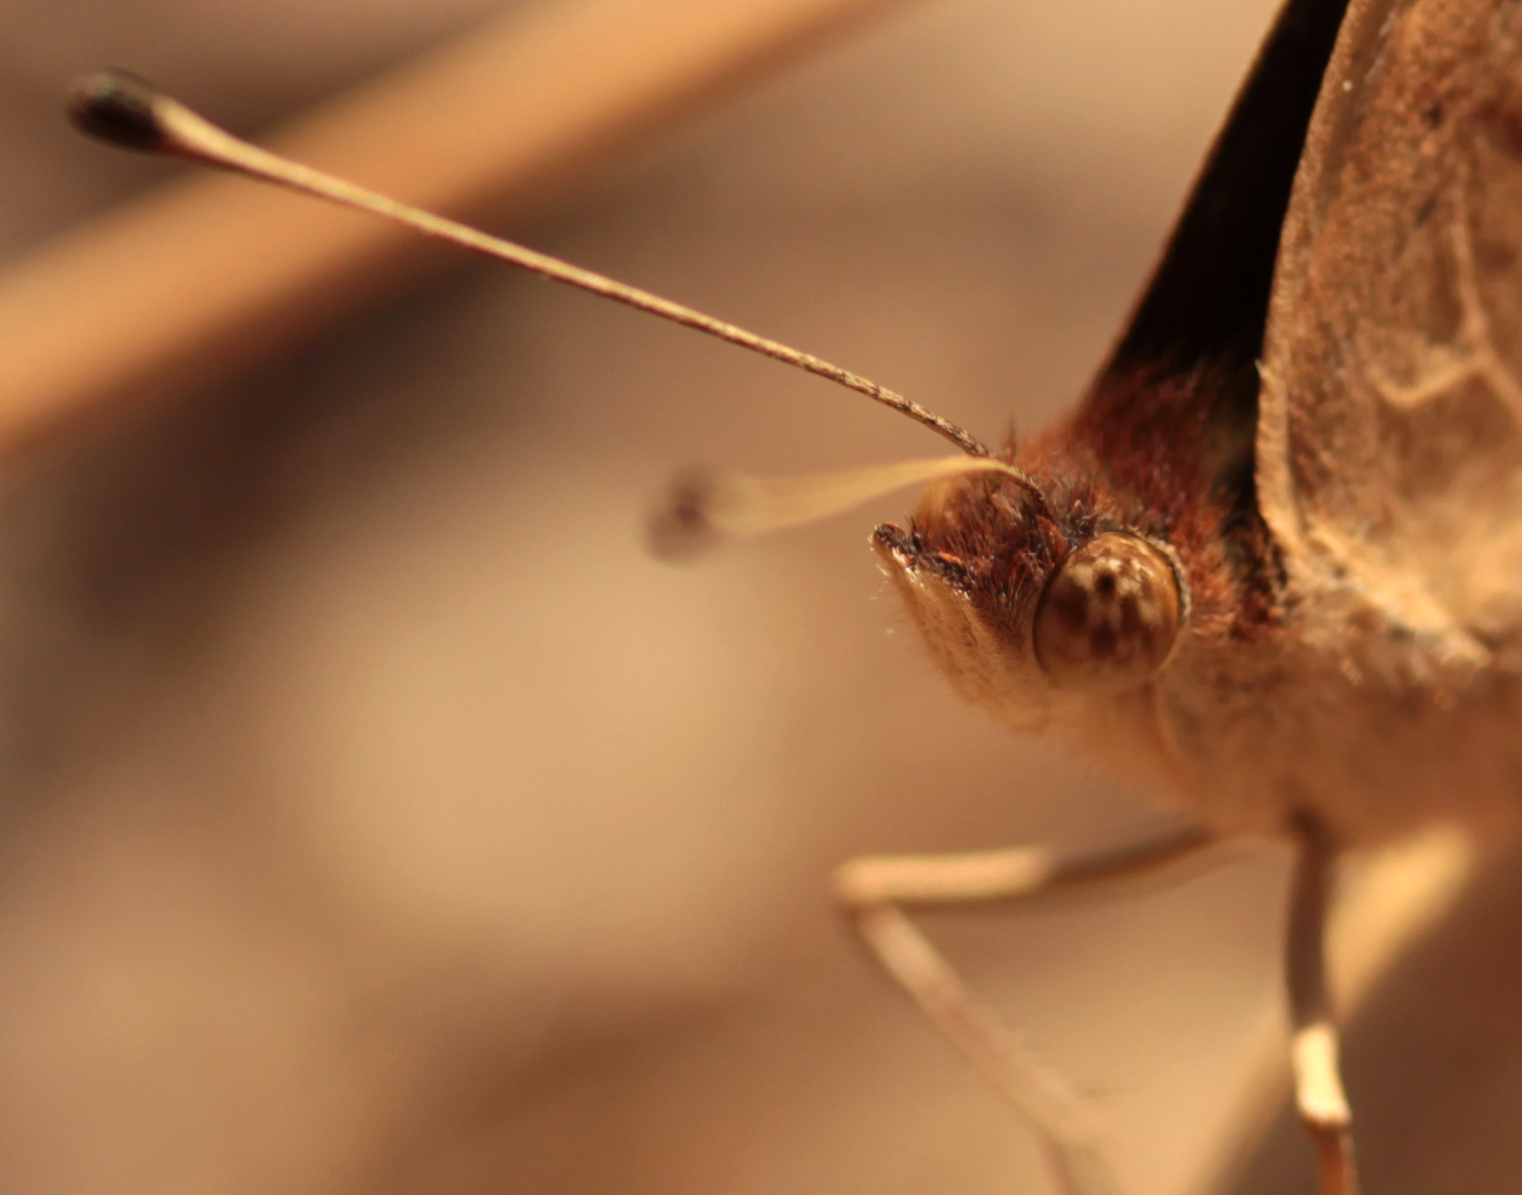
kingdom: Animalia
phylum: Arthropoda
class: Insecta
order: Lepidoptera
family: Nymphalidae
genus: Junonia
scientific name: Junonia grisea
